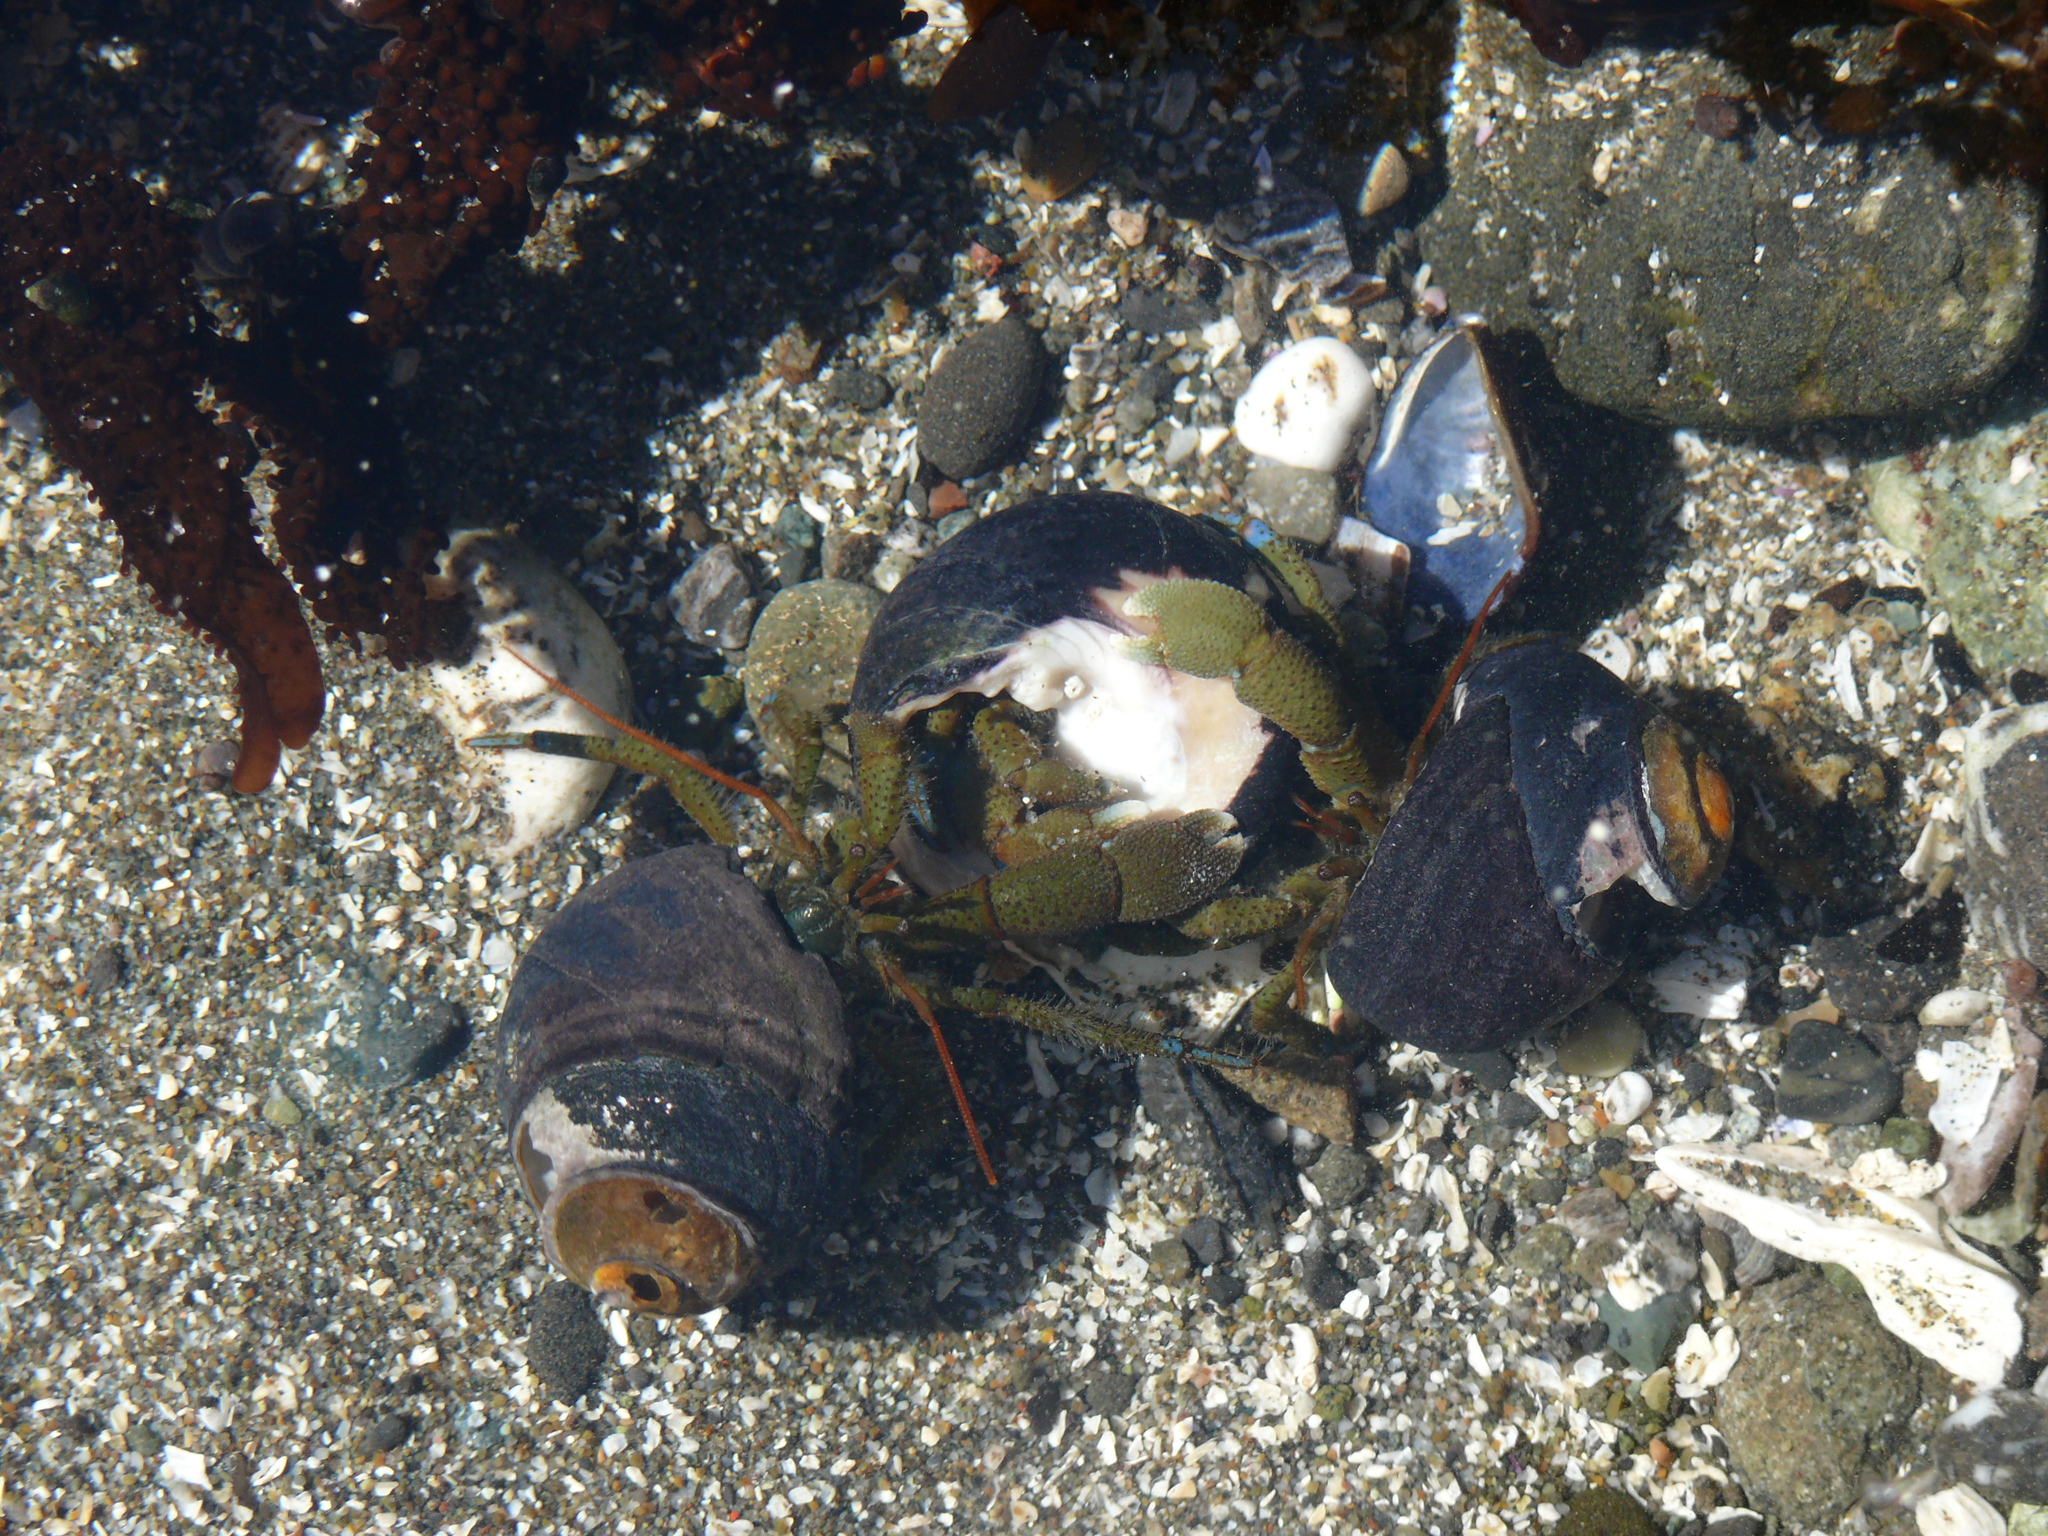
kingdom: Animalia
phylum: Arthropoda
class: Malacostraca
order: Decapoda
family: Paguridae
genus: Pagurus
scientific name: Pagurus samuelis
